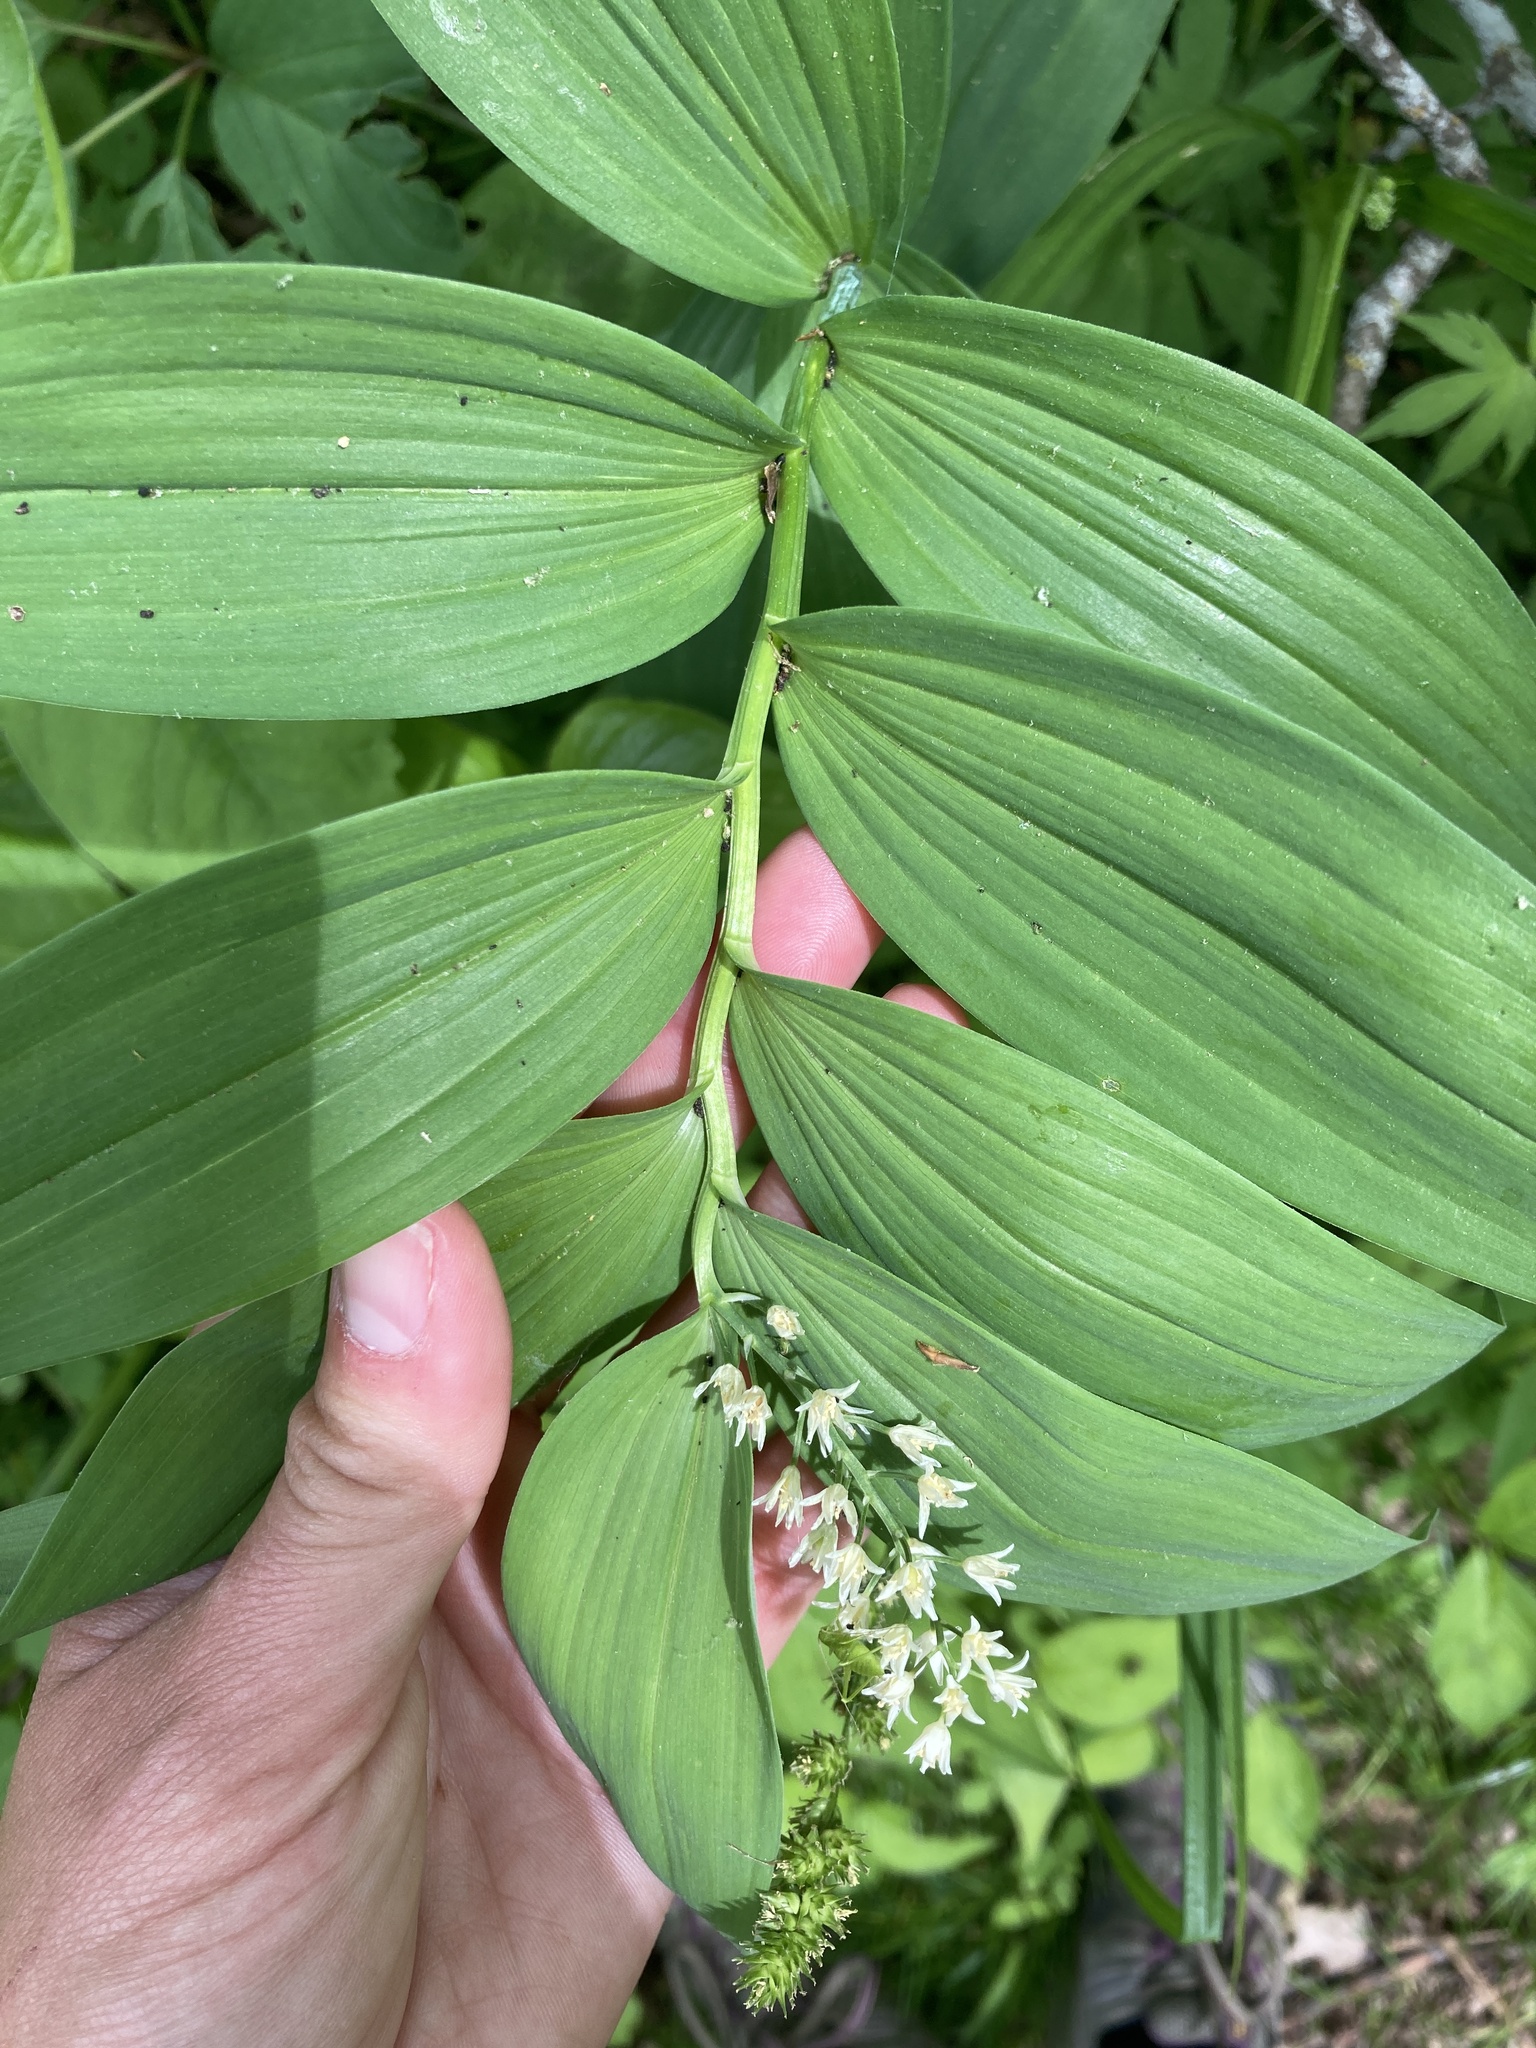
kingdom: Plantae
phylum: Tracheophyta
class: Liliopsida
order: Asparagales
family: Asparagaceae
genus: Maianthemum
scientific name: Maianthemum racemosum
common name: False spikenard
